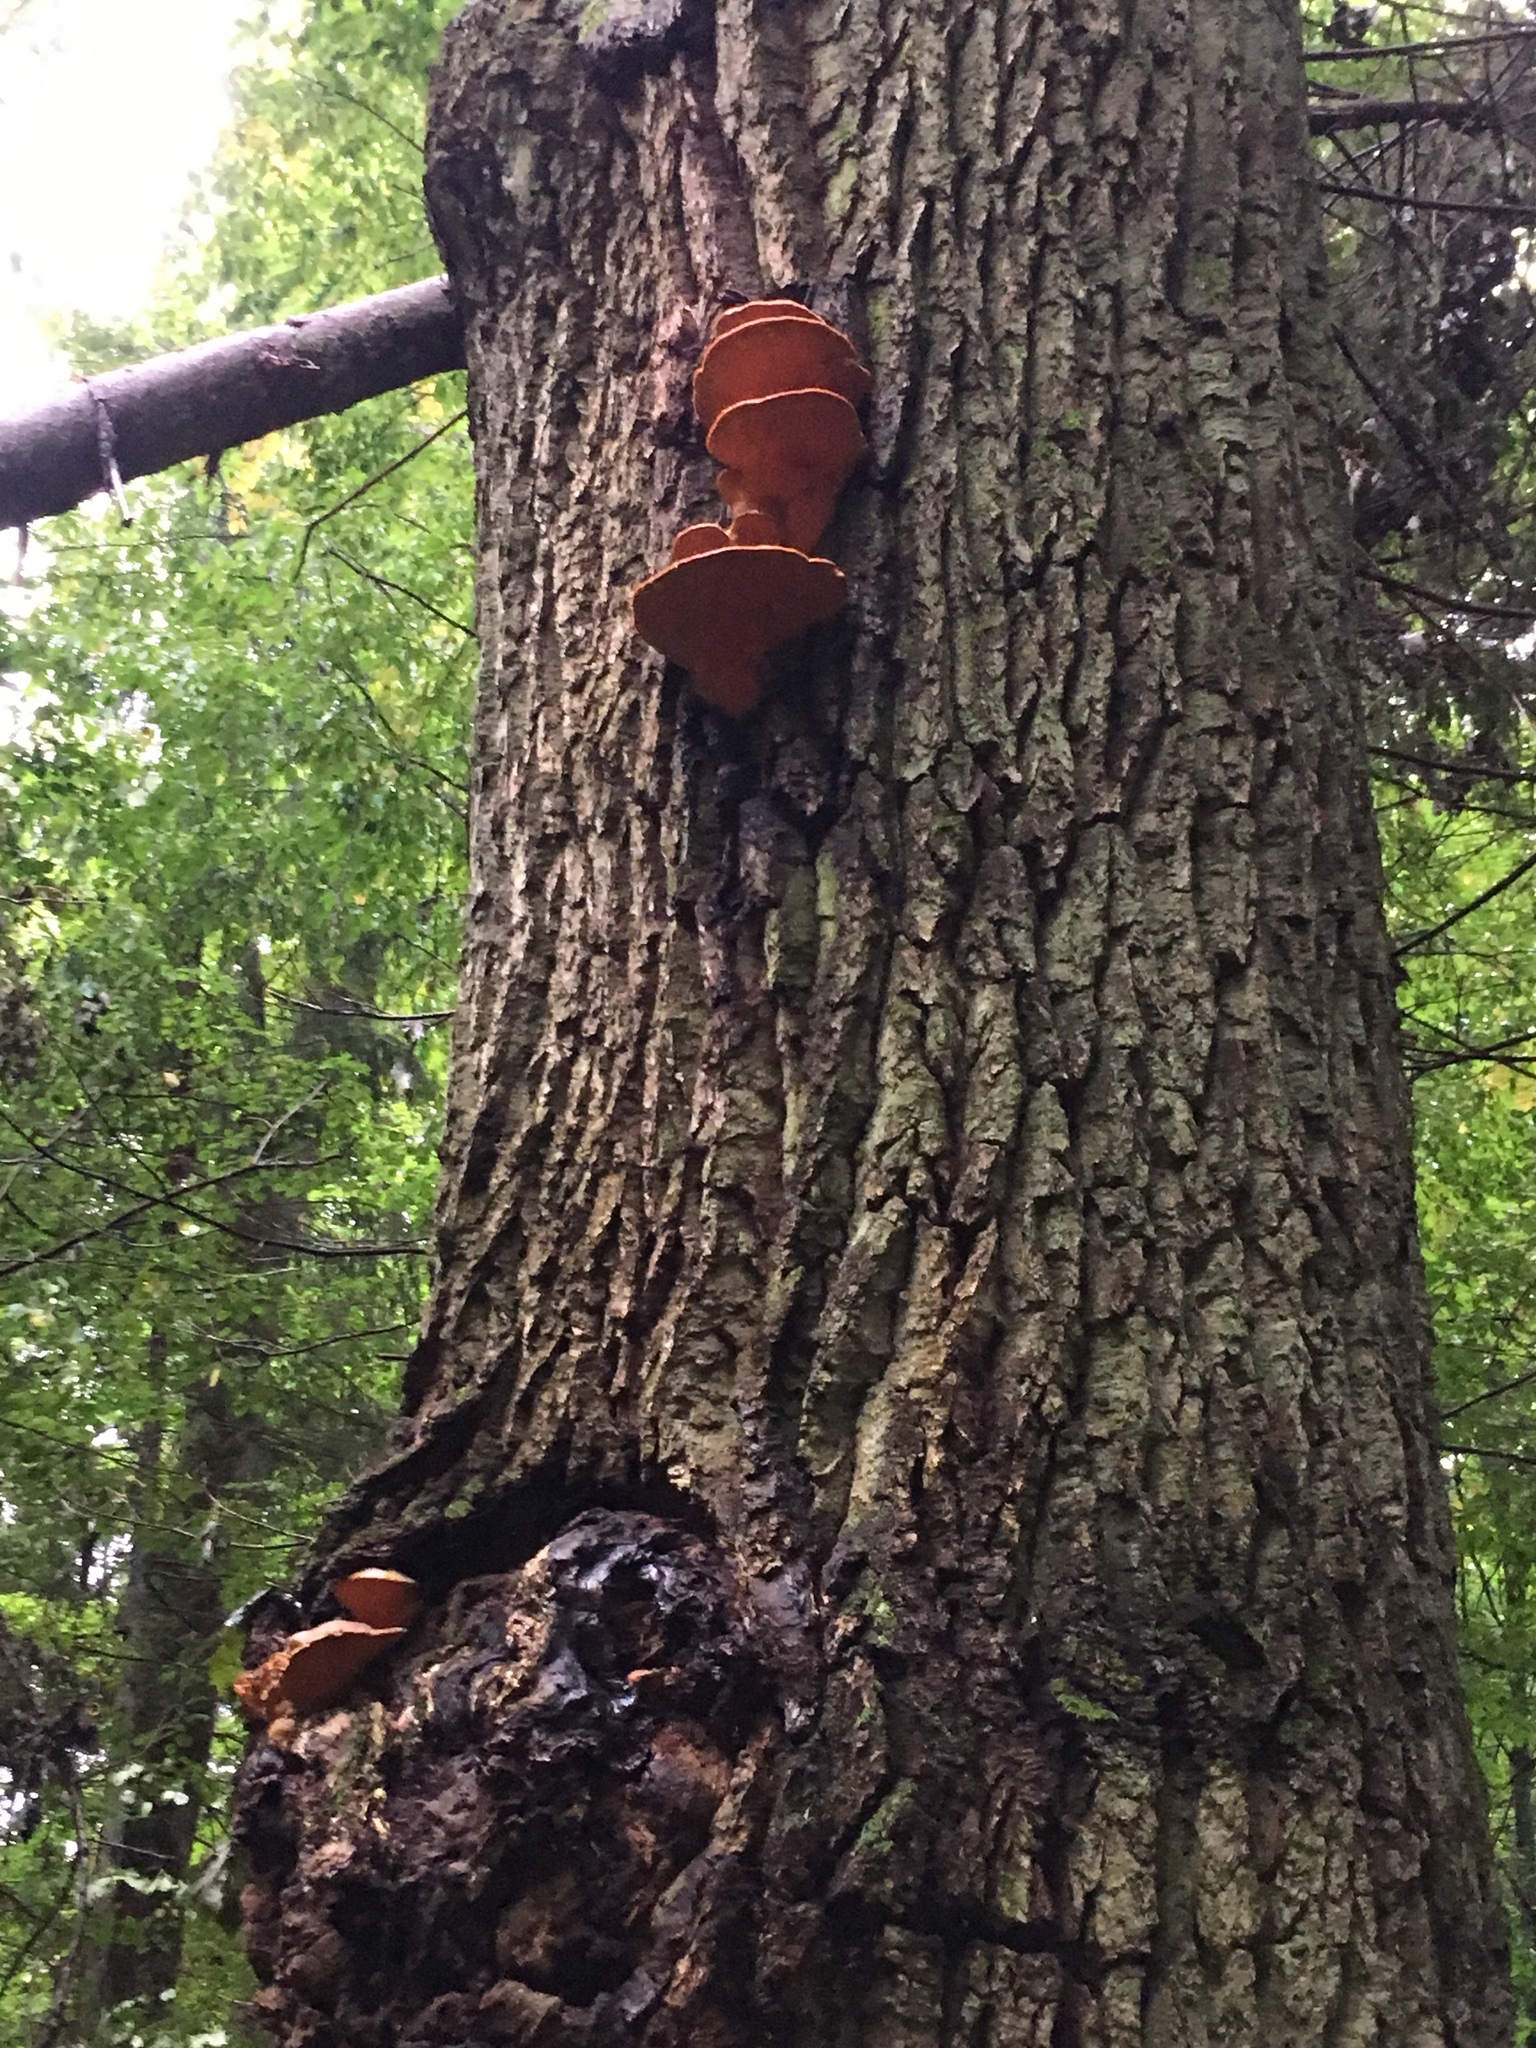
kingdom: Fungi
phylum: Basidiomycota
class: Agaricomycetes
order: Polyporales
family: Phanerochaetaceae
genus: Hapalopilus
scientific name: Hapalopilus croceus
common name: Orange polypore
